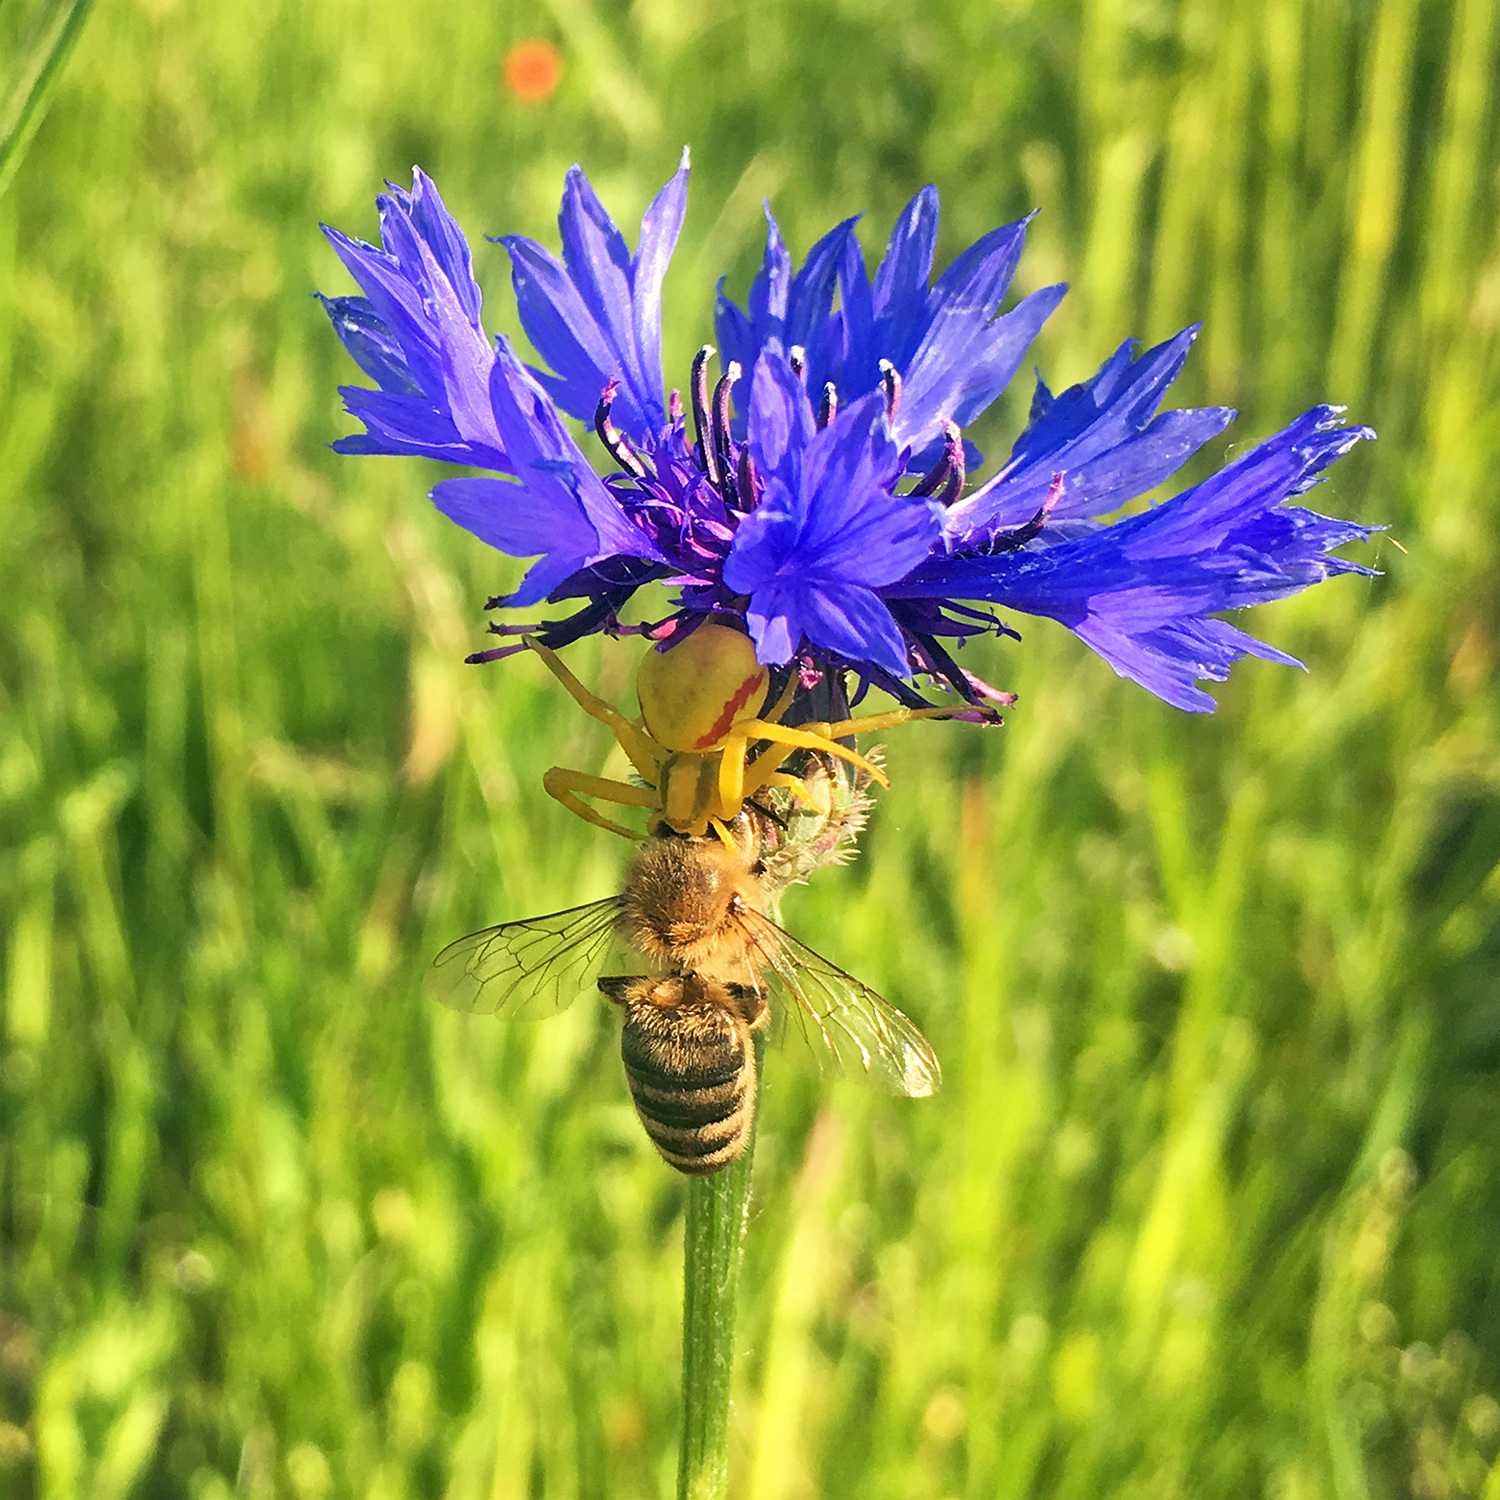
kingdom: Animalia
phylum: Arthropoda
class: Arachnida
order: Araneae
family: Thomisidae
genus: Misumena
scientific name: Misumena vatia
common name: Goldenrod crab spider
